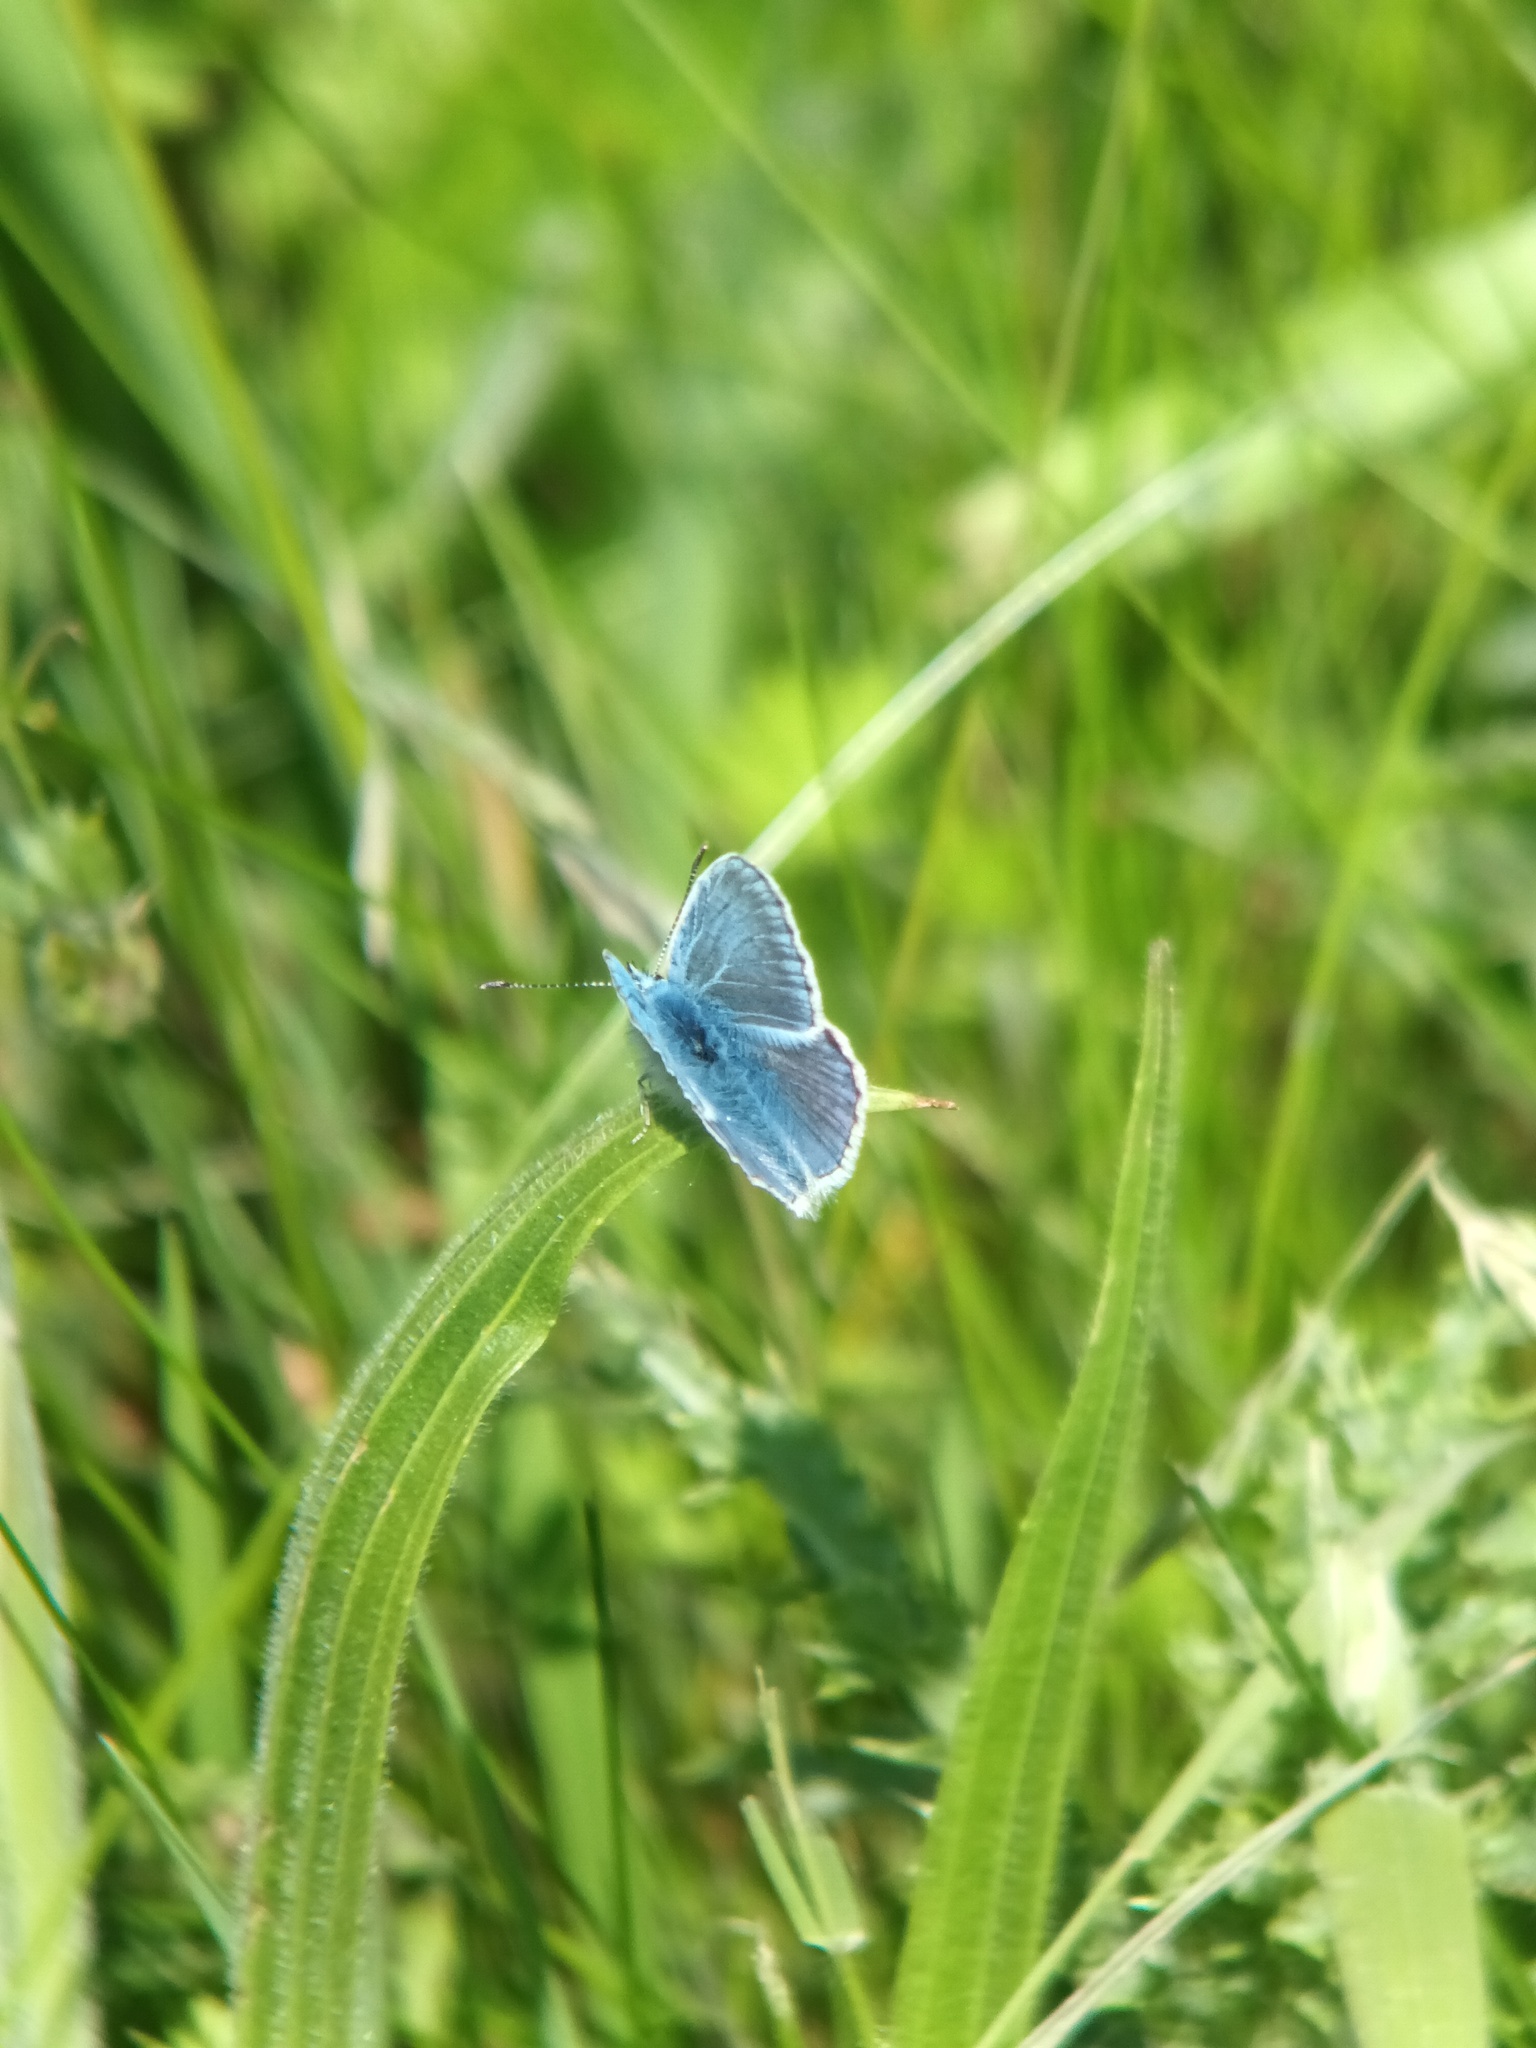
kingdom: Animalia
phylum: Arthropoda
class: Insecta
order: Lepidoptera
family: Lycaenidae
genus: Polyommatus
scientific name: Polyommatus icarus
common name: Common blue
